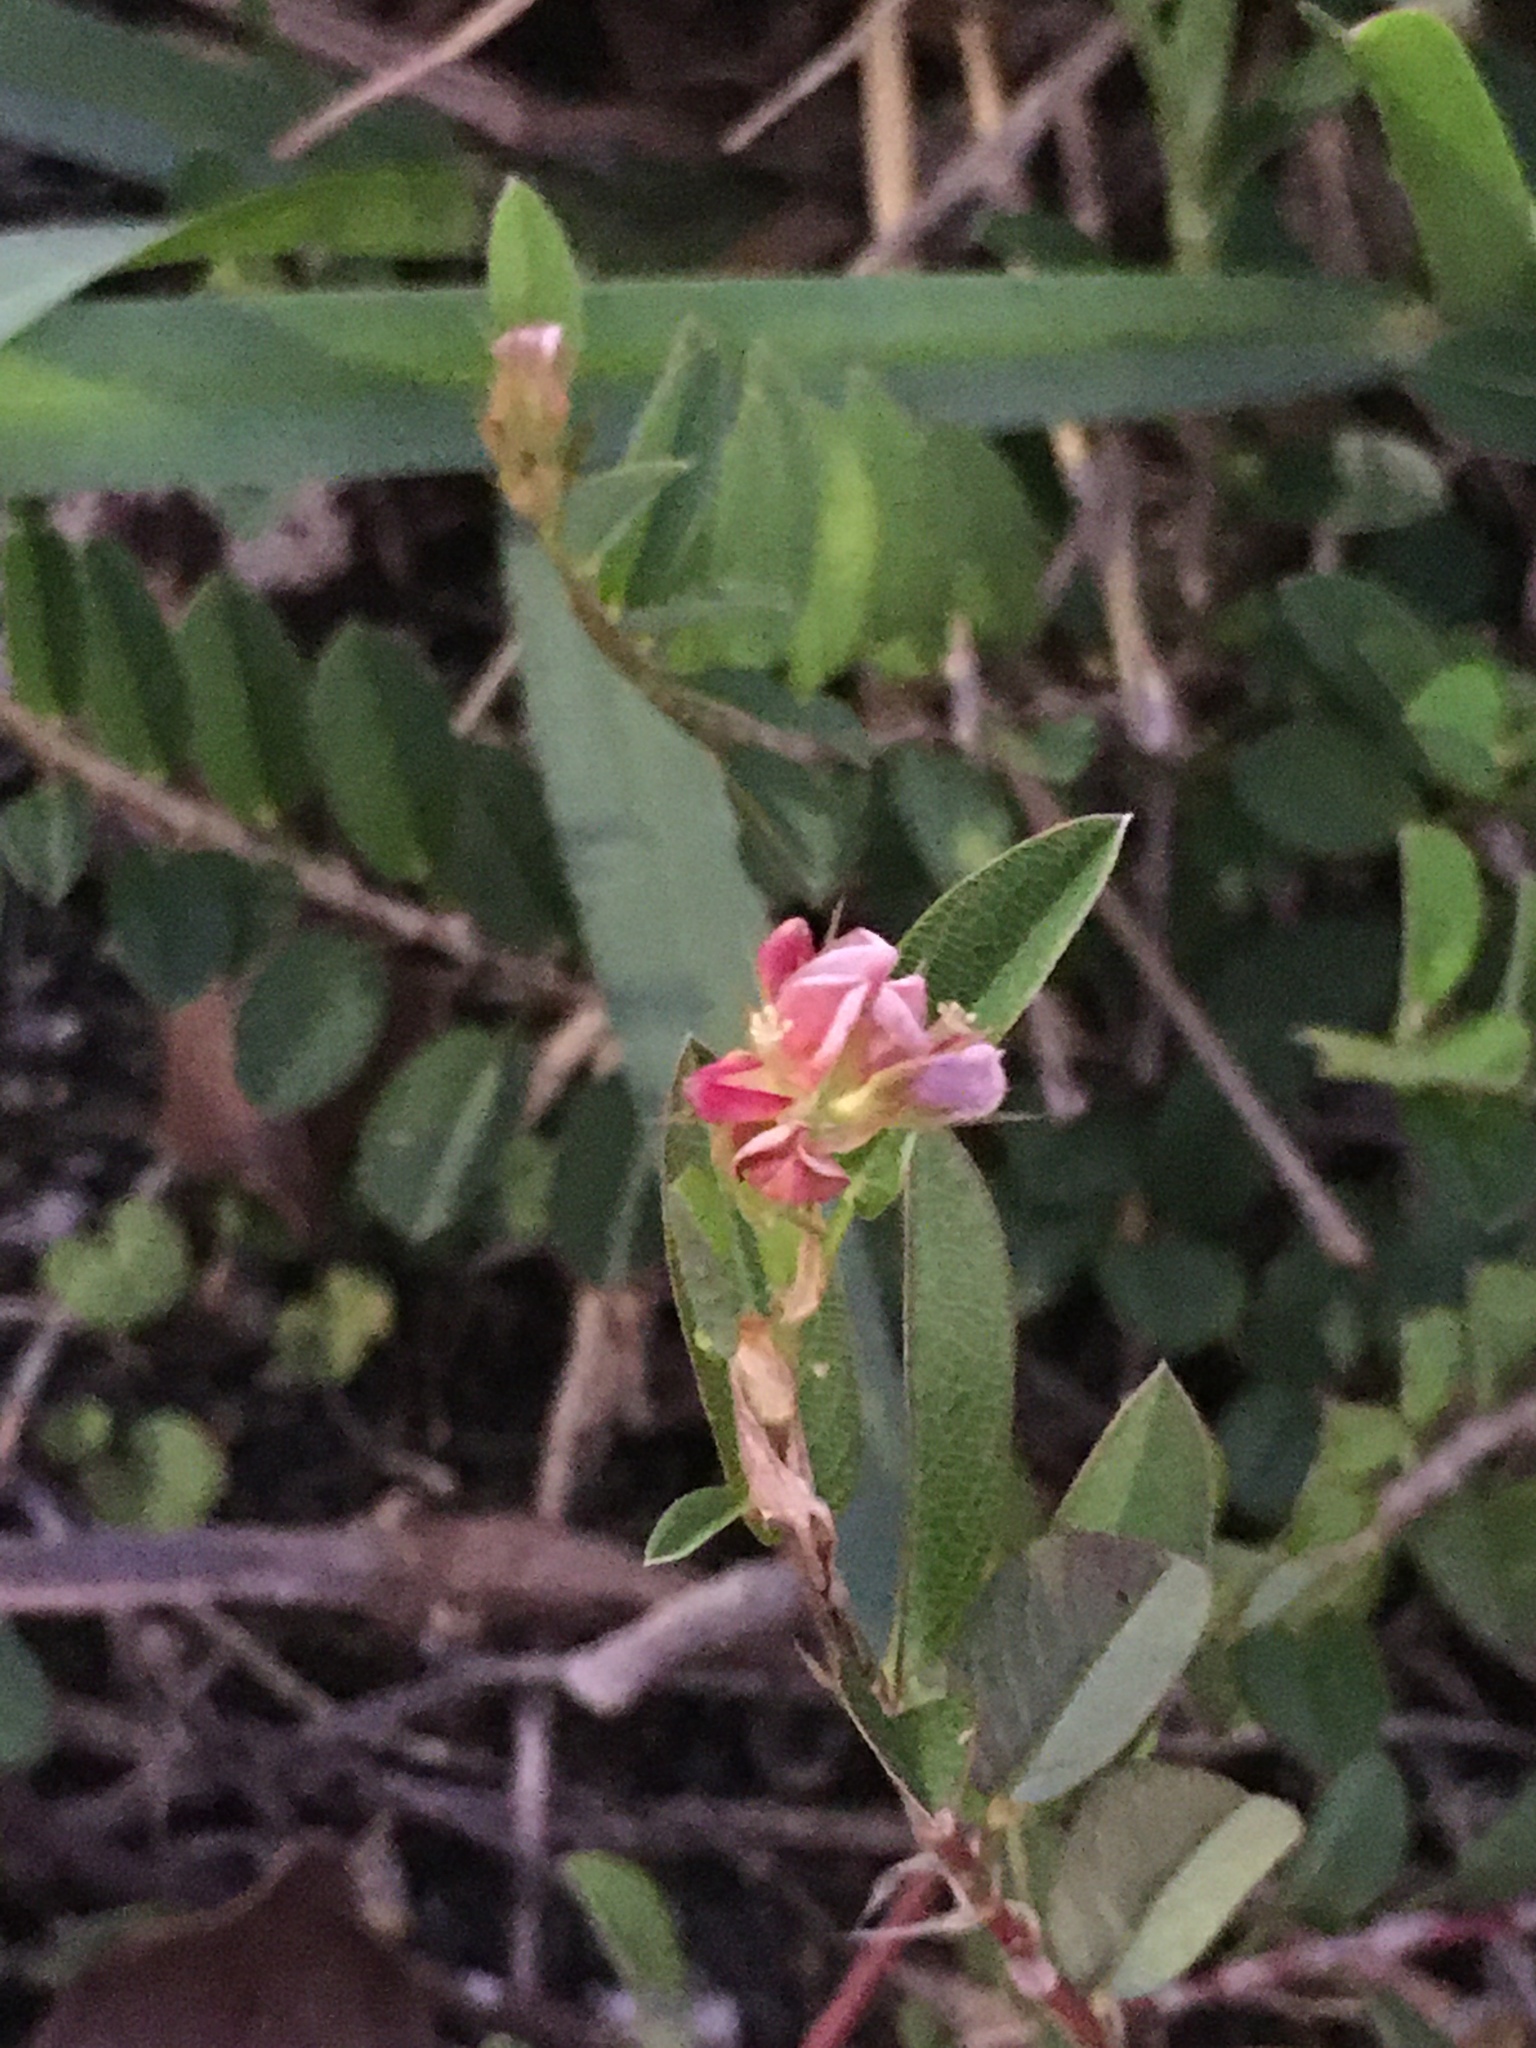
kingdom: Plantae
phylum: Tracheophyta
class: Magnoliopsida
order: Fabales
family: Fabaceae
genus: Alysicarpus
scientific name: Alysicarpus vaginalis
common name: White moneywort
